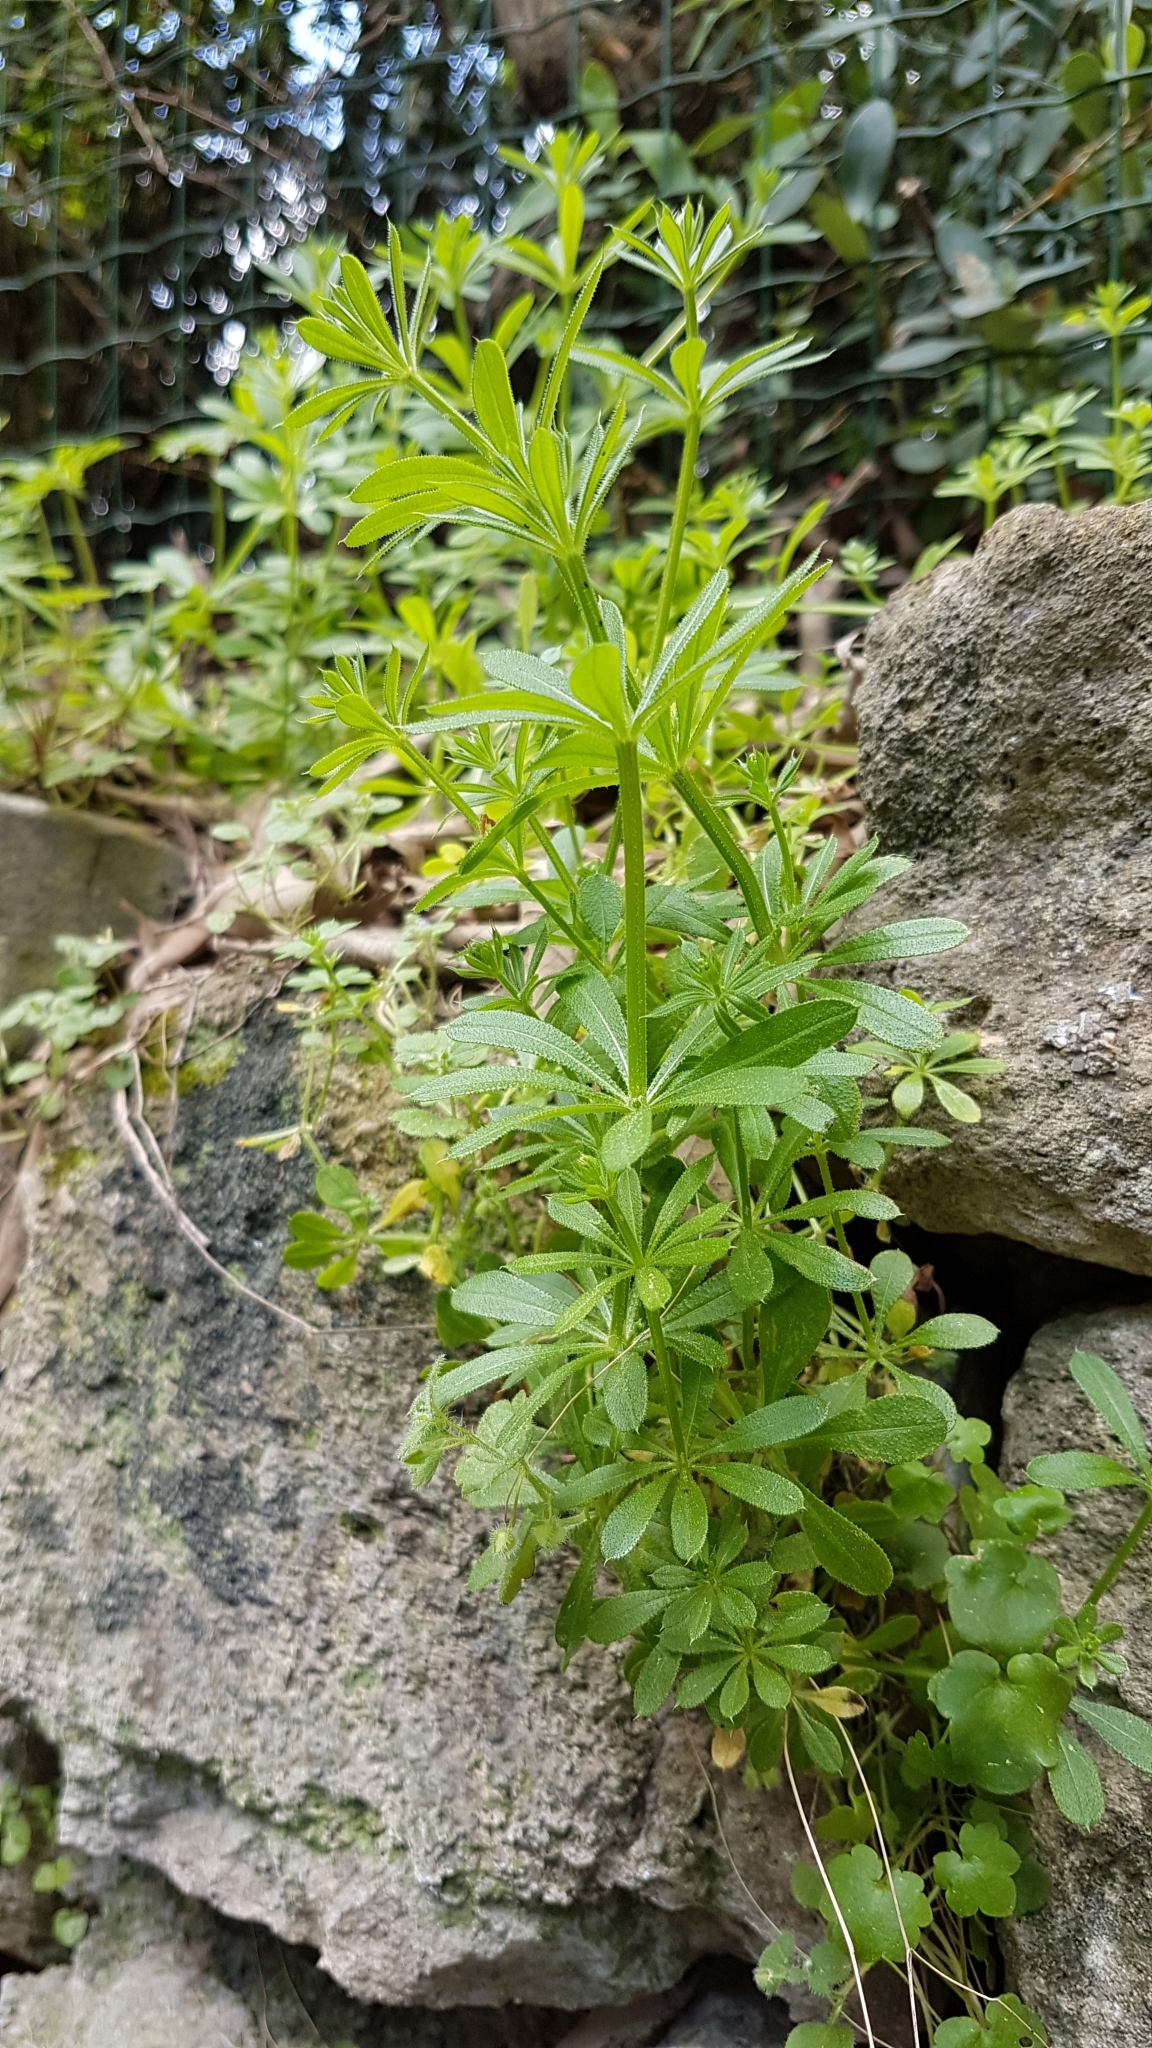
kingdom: Plantae
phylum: Tracheophyta
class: Magnoliopsida
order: Gentianales
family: Rubiaceae
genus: Galium
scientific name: Galium aparine
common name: Cleavers
